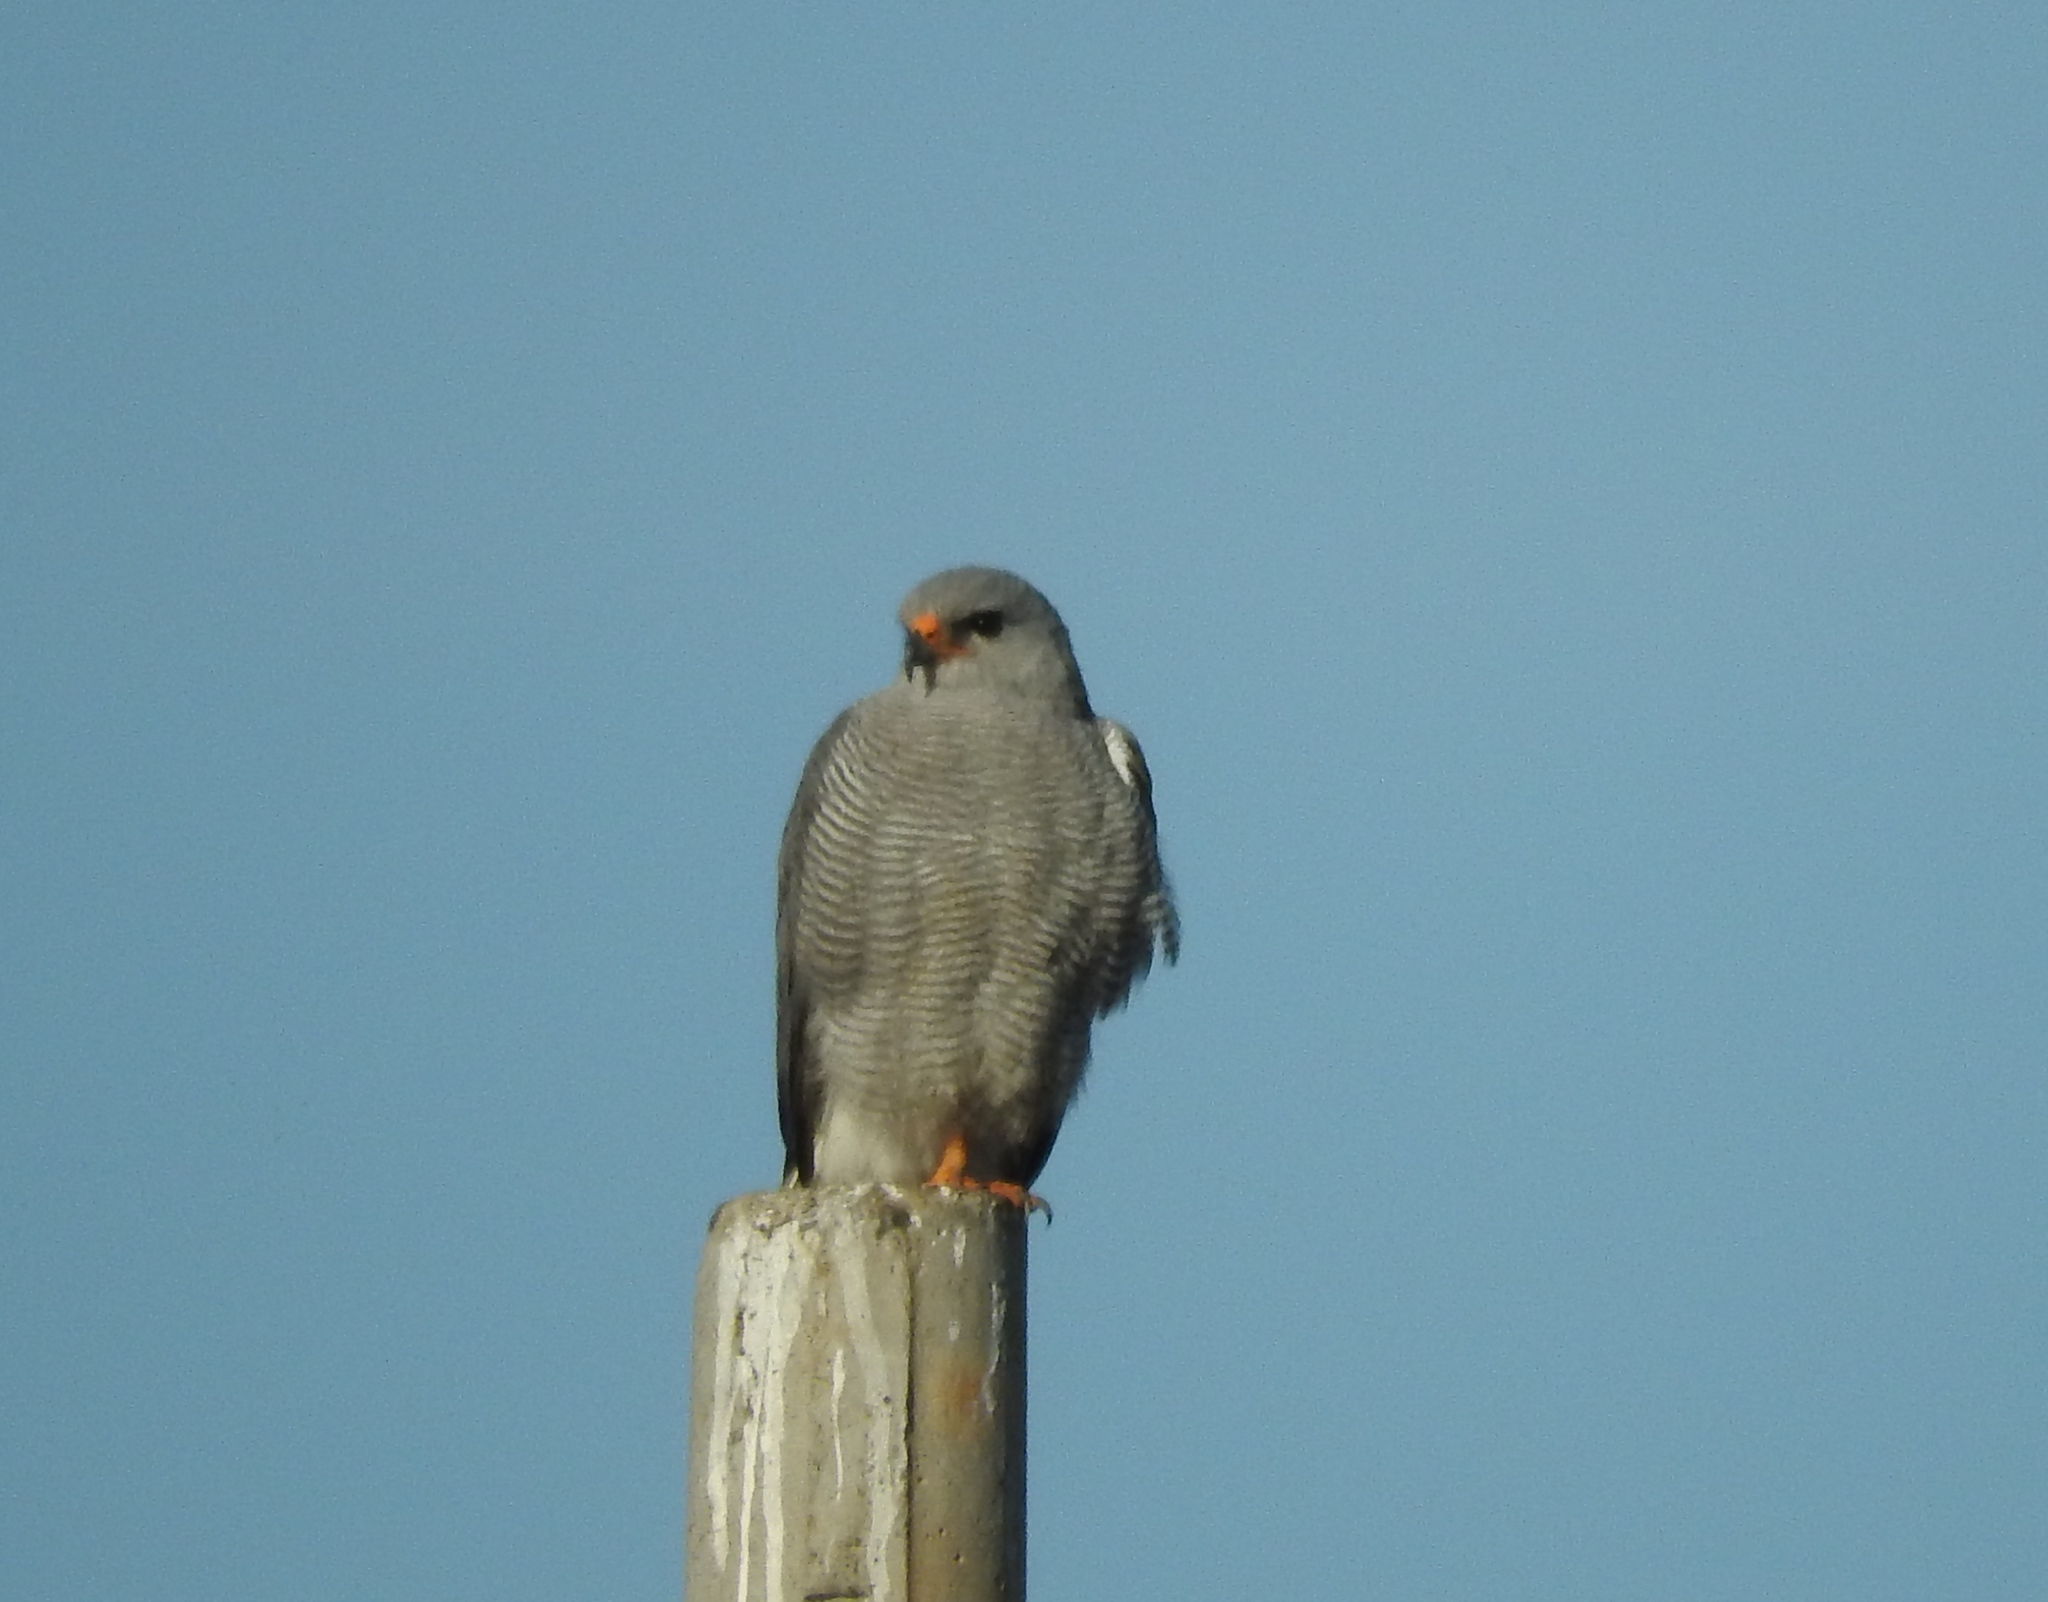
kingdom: Animalia
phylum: Chordata
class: Aves
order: Accipitriformes
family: Accipitridae
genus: Buteo
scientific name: Buteo nitidus
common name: Grey-lined hawk
